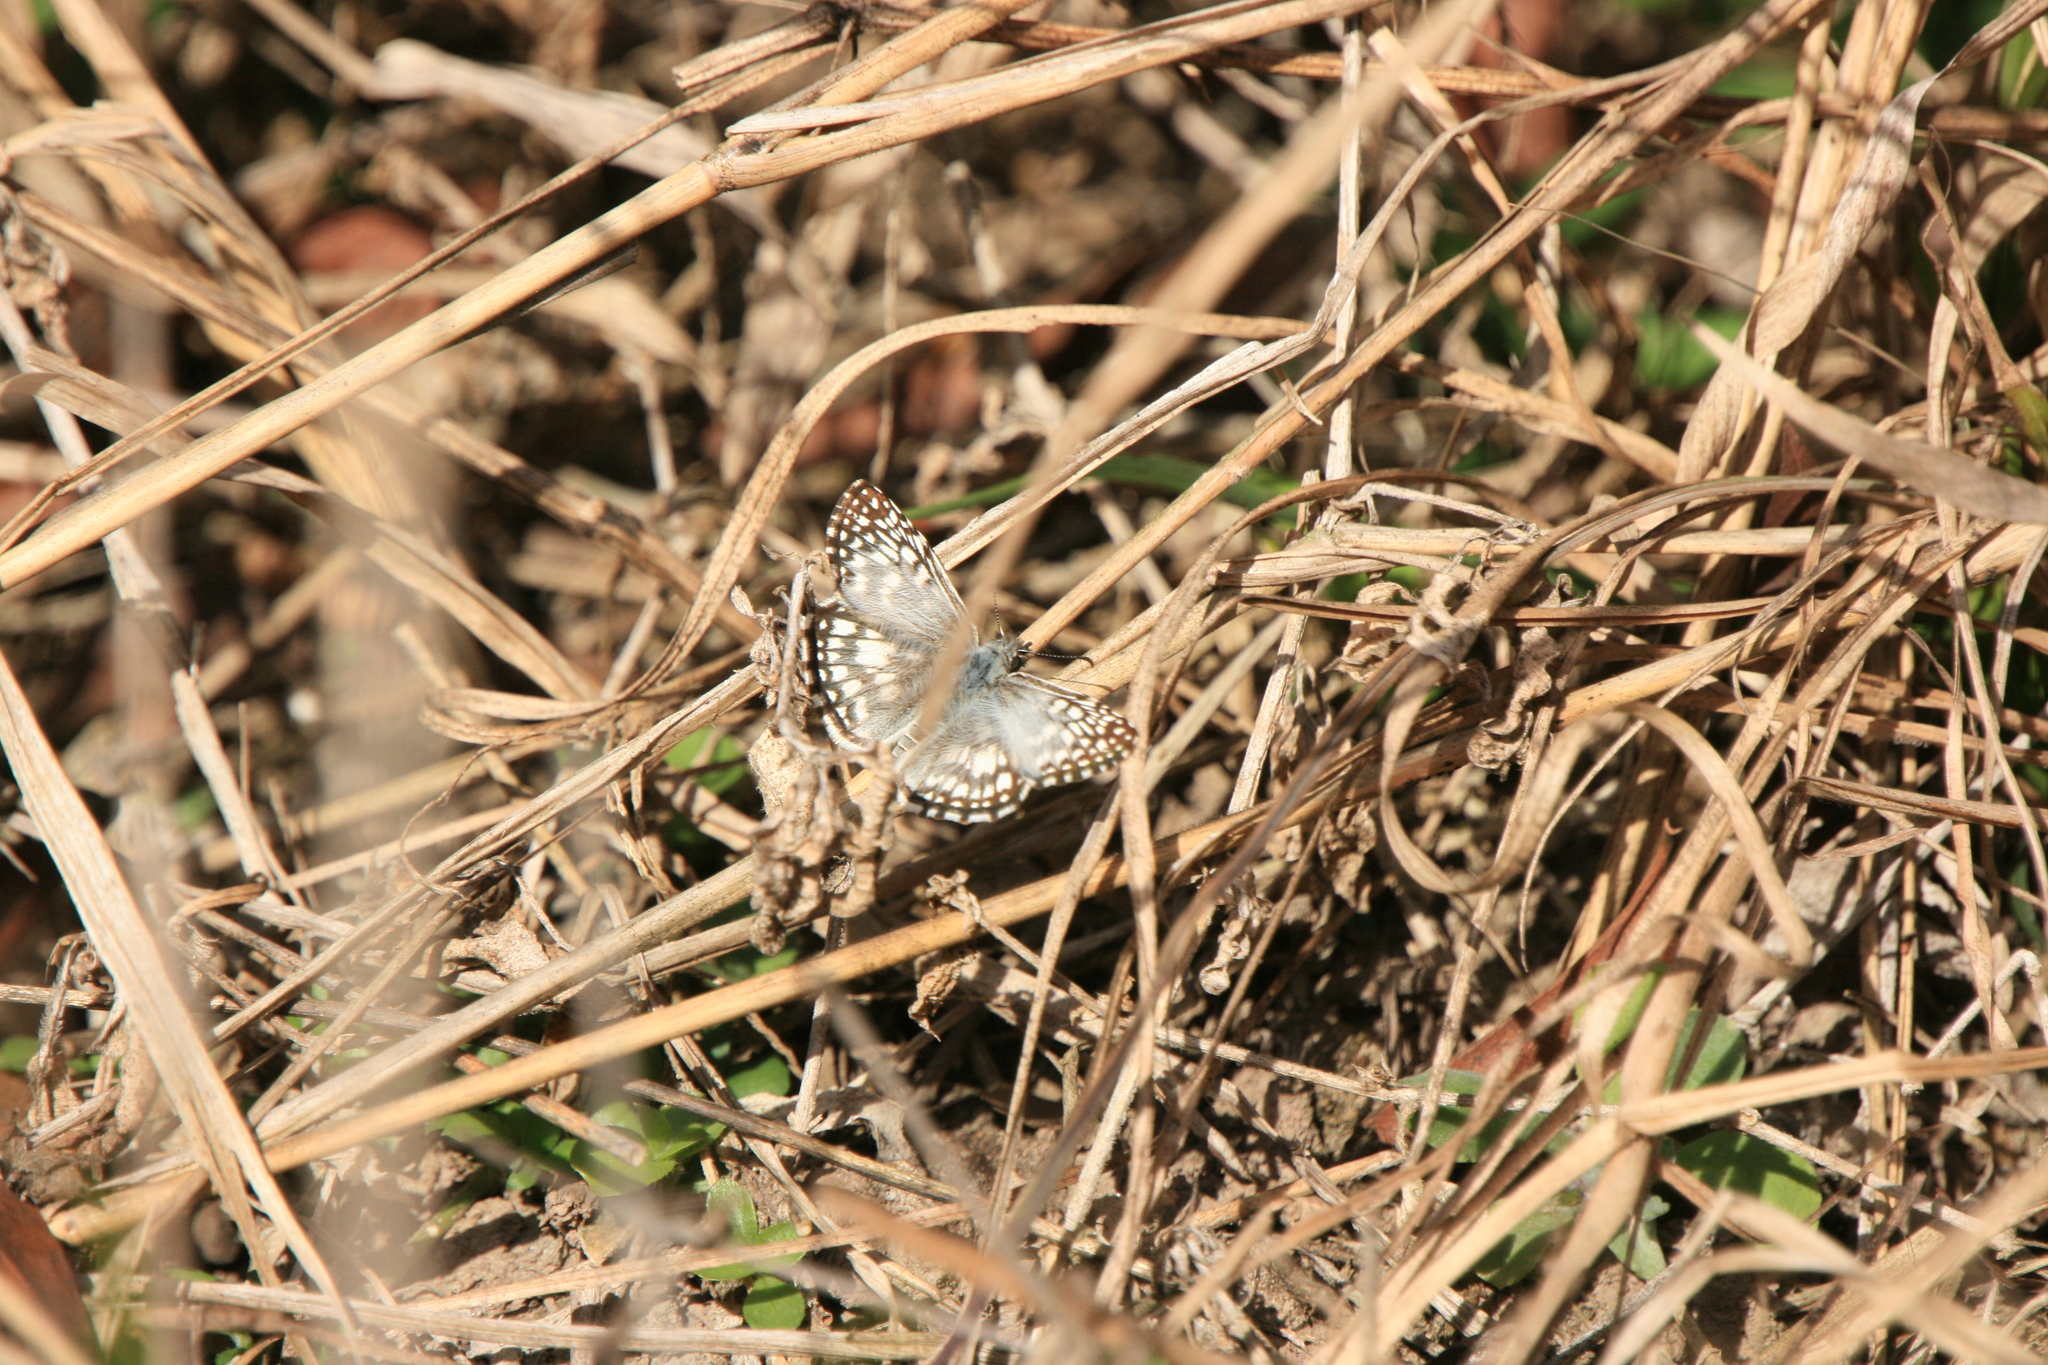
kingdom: Animalia
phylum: Arthropoda
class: Insecta
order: Lepidoptera
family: Hesperiidae
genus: Pyrgus
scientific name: Pyrgus oileus
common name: Tropical checkered-skipper
